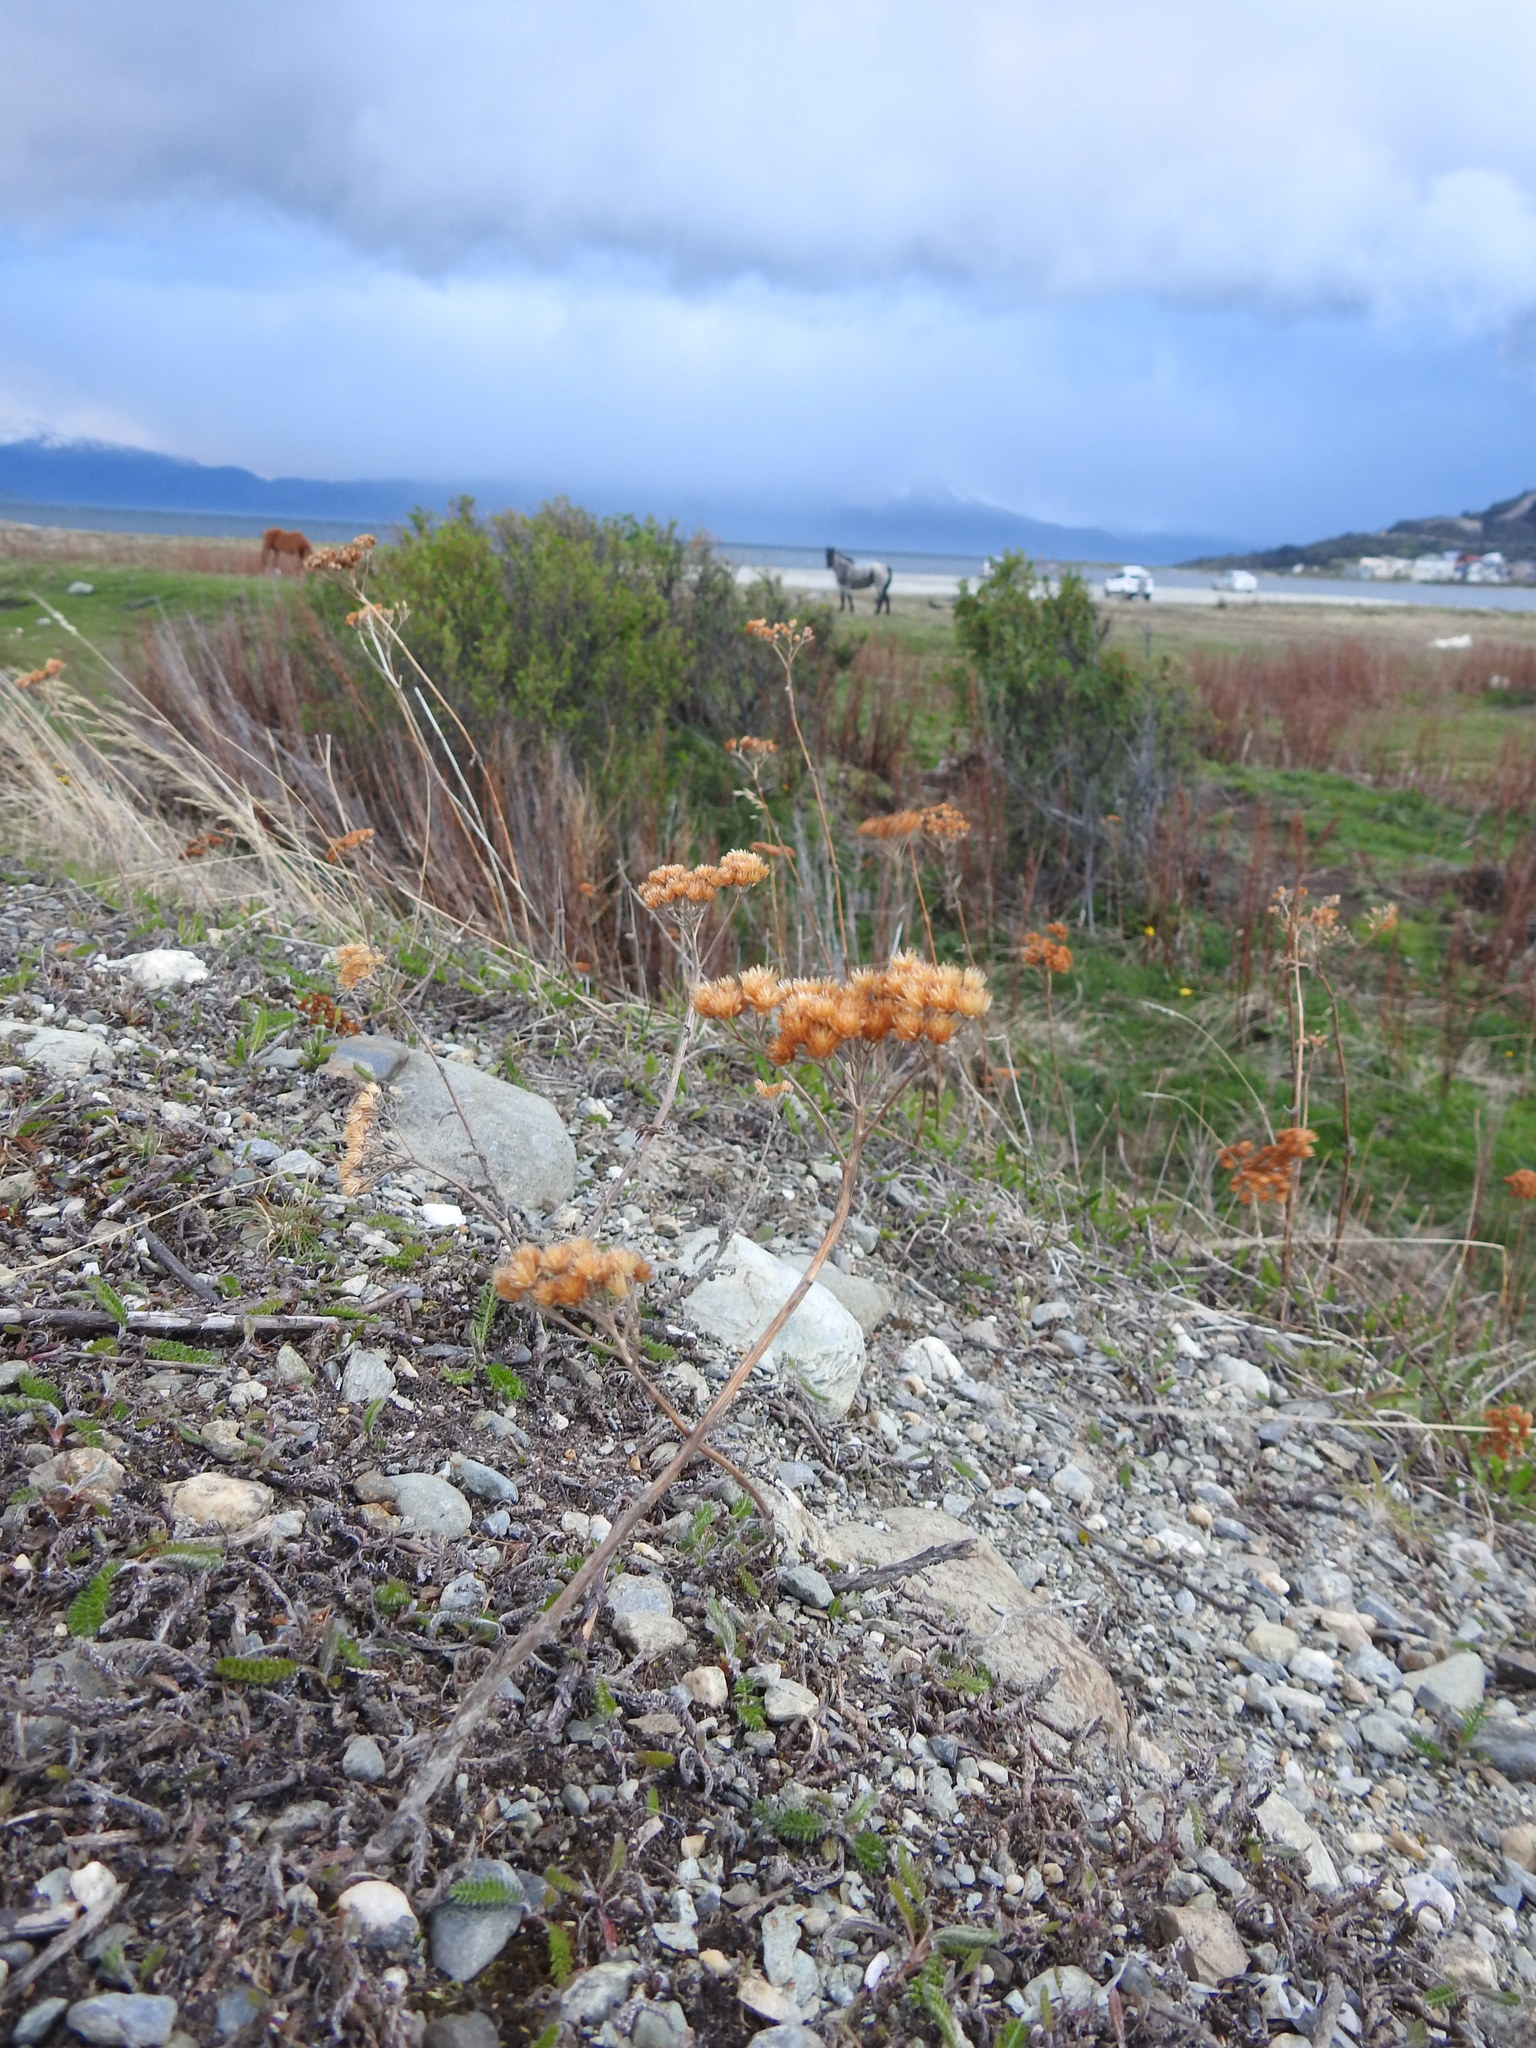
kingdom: Plantae
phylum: Tracheophyta
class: Magnoliopsida
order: Asterales
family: Asteraceae
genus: Achillea
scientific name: Achillea millefolium
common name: Yarrow
